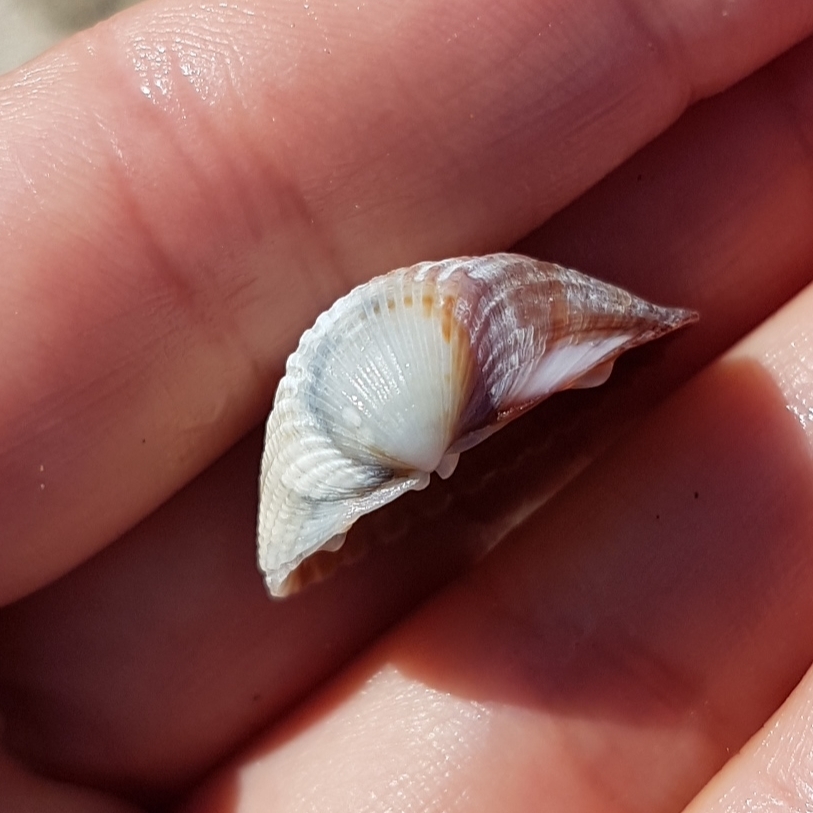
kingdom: Animalia
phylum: Mollusca
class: Bivalvia
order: Cardiida
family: Cardiidae
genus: Cerastoderma
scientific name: Cerastoderma glaucum
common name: Lagoon cockle
